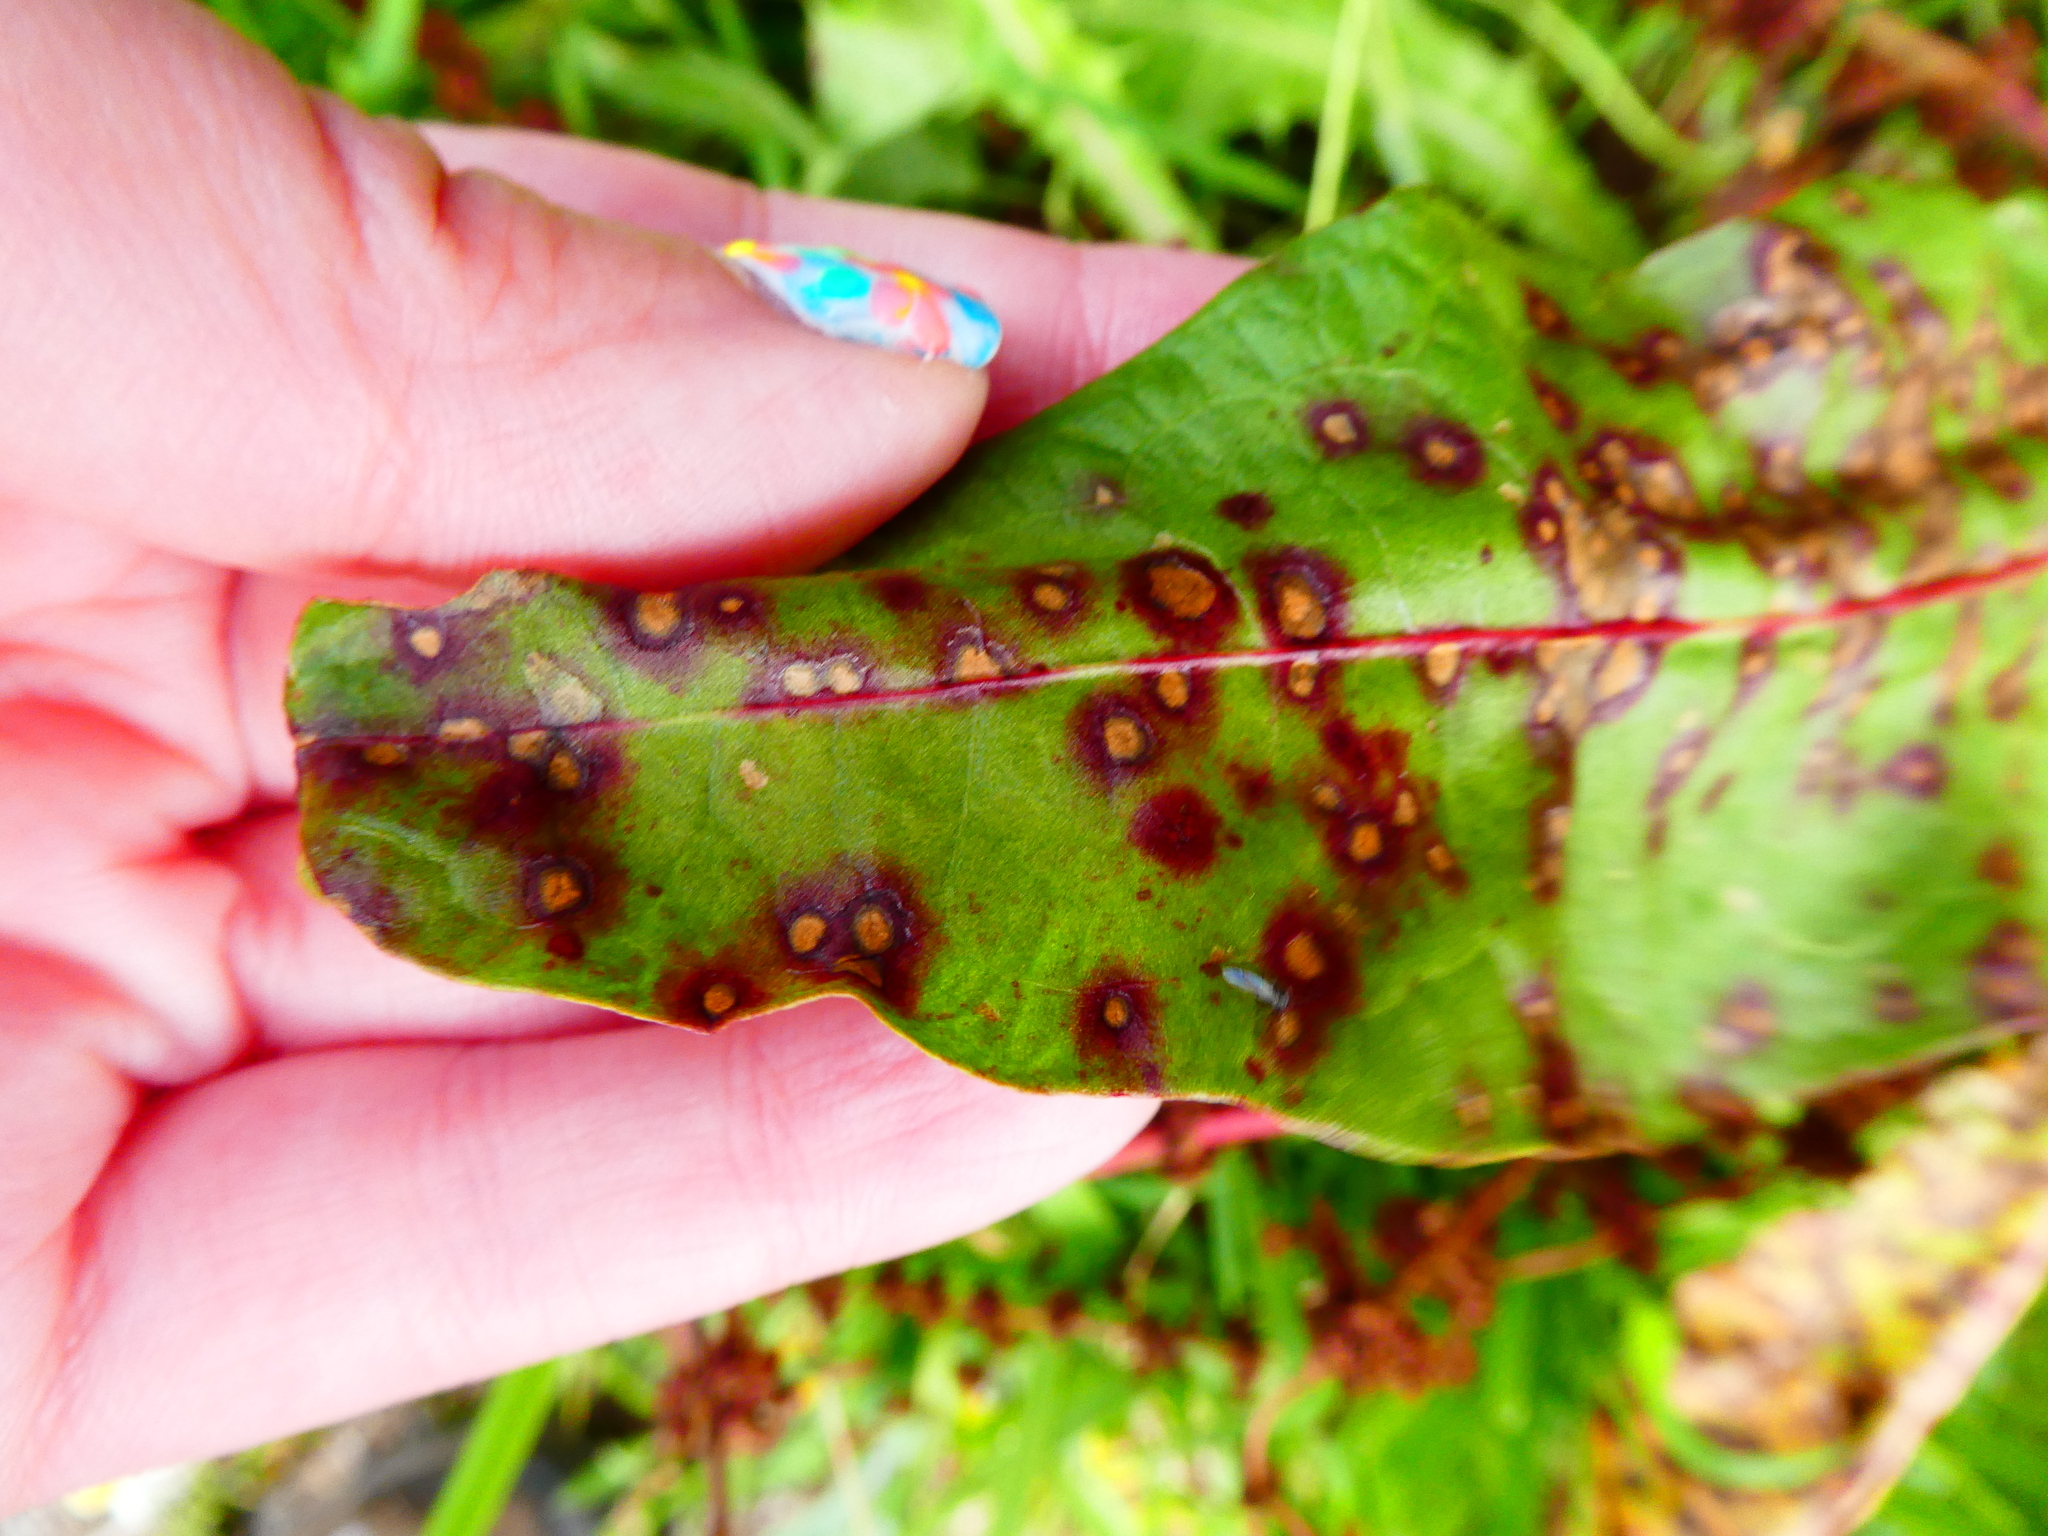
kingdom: Fungi
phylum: Ascomycota
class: Dothideomycetes
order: Mycosphaerellales
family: Mycosphaerellaceae
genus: Ramularia
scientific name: Ramularia rubella
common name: Red dock spot
